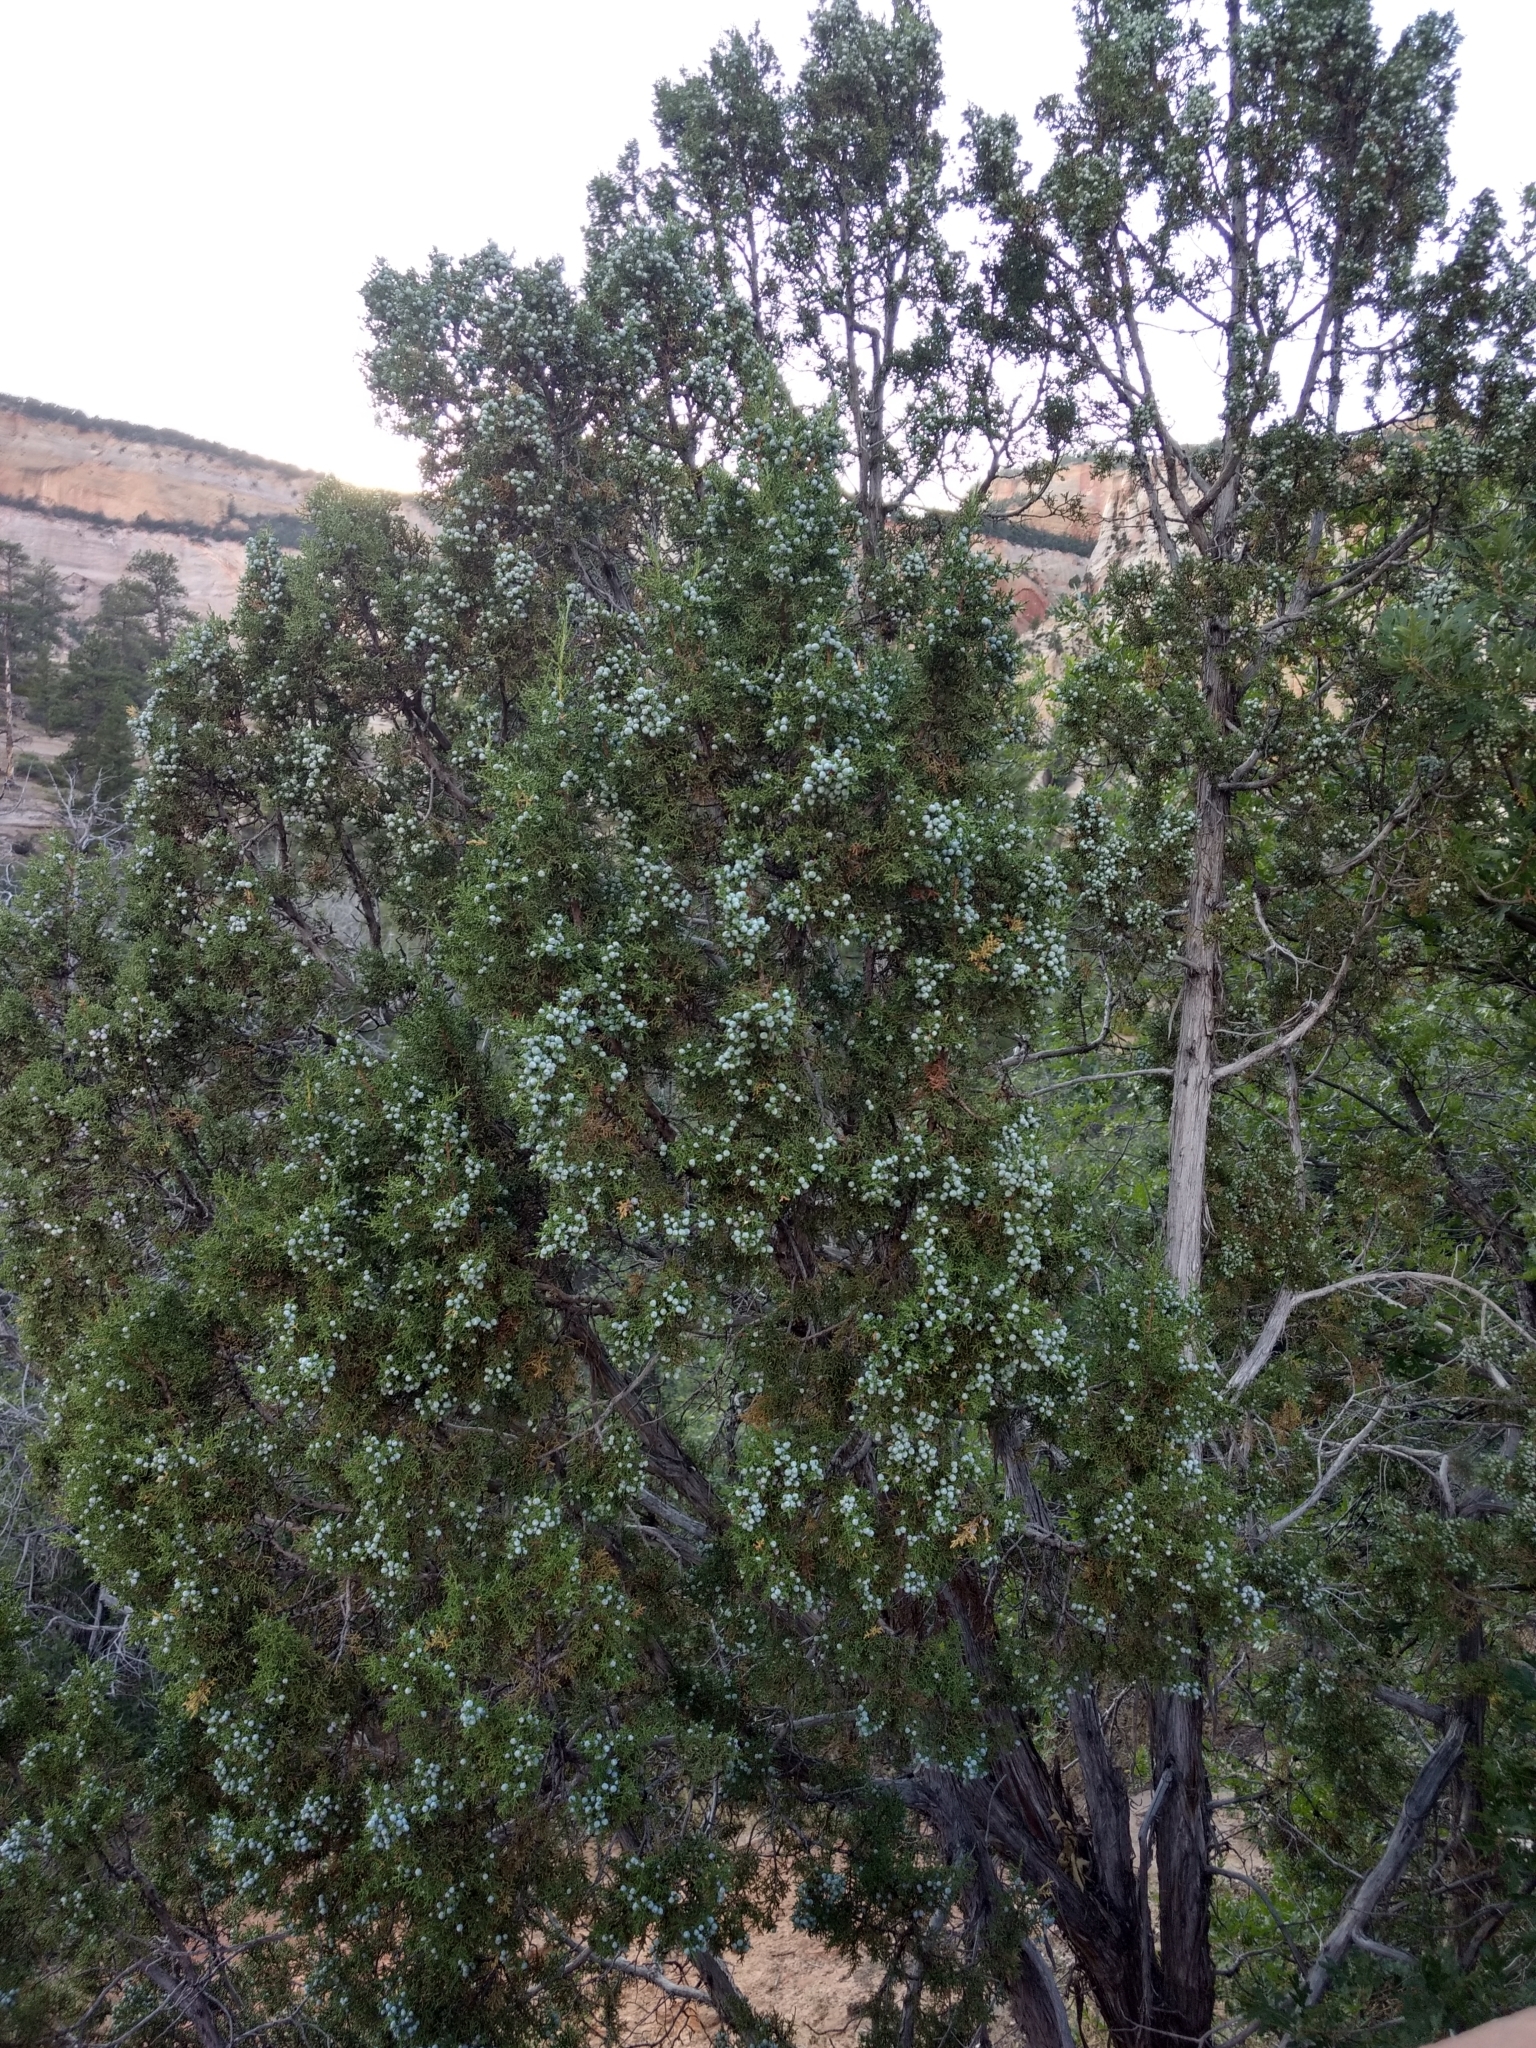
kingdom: Plantae
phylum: Tracheophyta
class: Pinopsida
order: Pinales
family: Cupressaceae
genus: Juniperus
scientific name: Juniperus osteosperma
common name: Utah juniper
